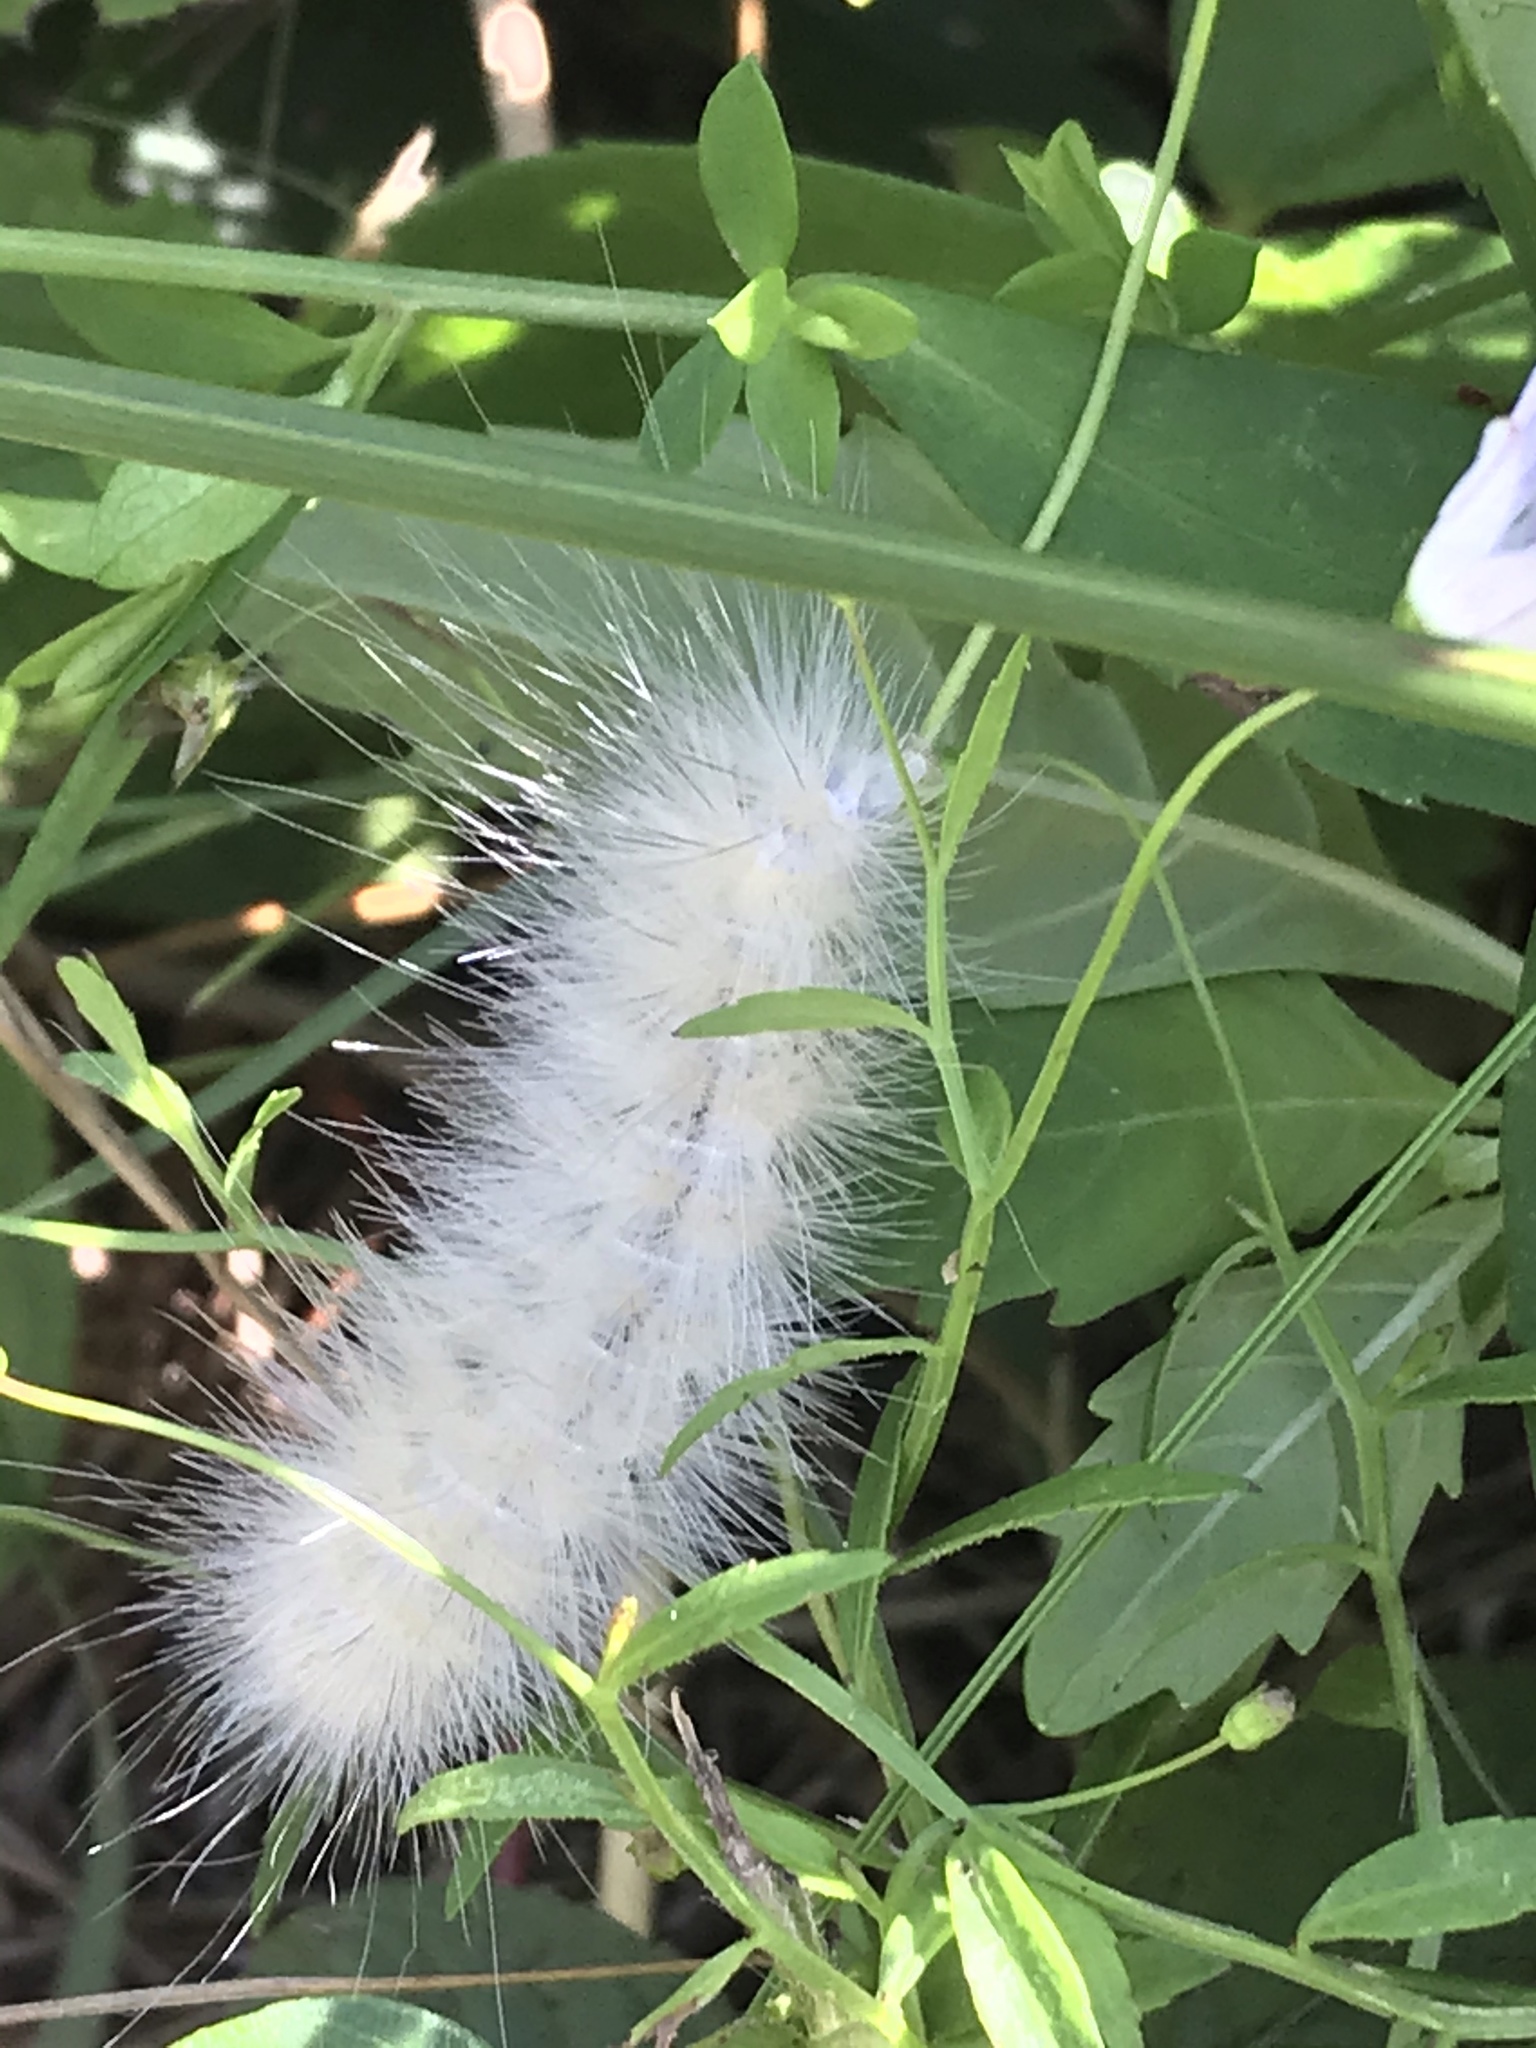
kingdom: Animalia
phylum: Arthropoda
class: Insecta
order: Lepidoptera
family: Erebidae
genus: Spilosoma
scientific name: Spilosoma virginica
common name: Virginia tiger moth
